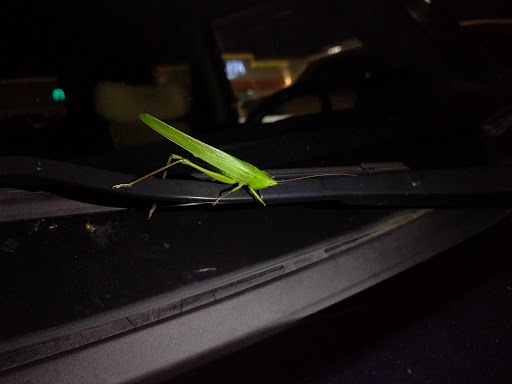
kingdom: Animalia
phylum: Arthropoda
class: Insecta
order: Orthoptera
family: Tettigoniidae
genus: Neoconocephalus
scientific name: Neoconocephalus triops
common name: Broad-tipped conehead
